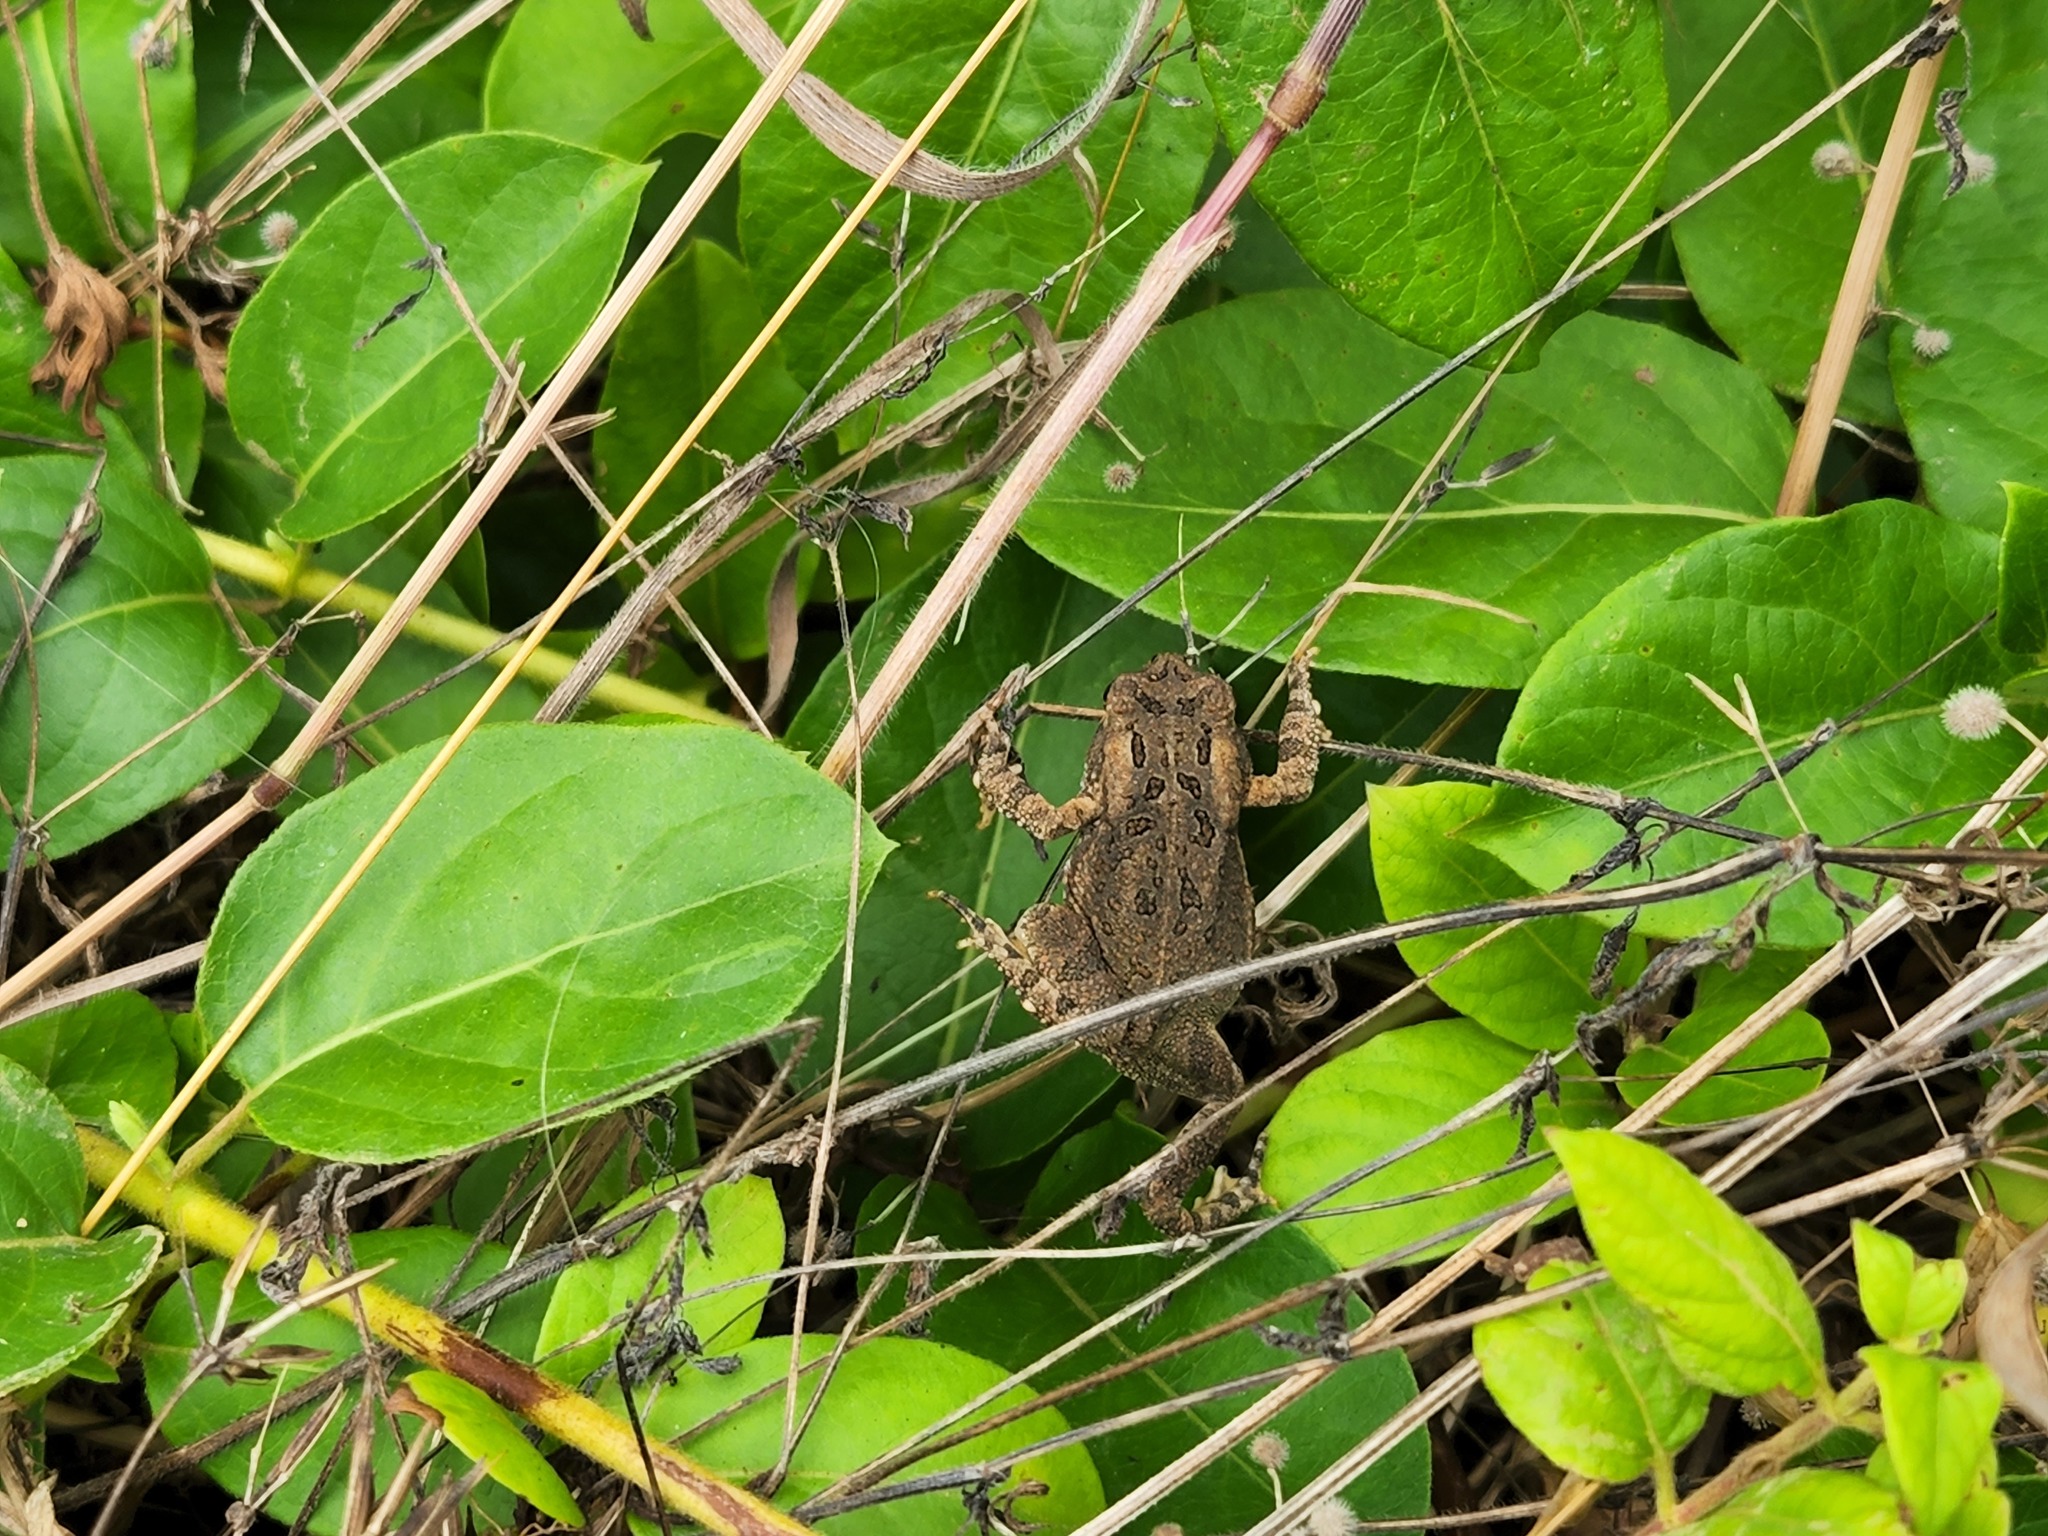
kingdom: Animalia
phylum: Chordata
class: Amphibia
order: Anura
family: Bufonidae
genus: Anaxyrus
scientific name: Anaxyrus fowleri
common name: Fowler's toad
